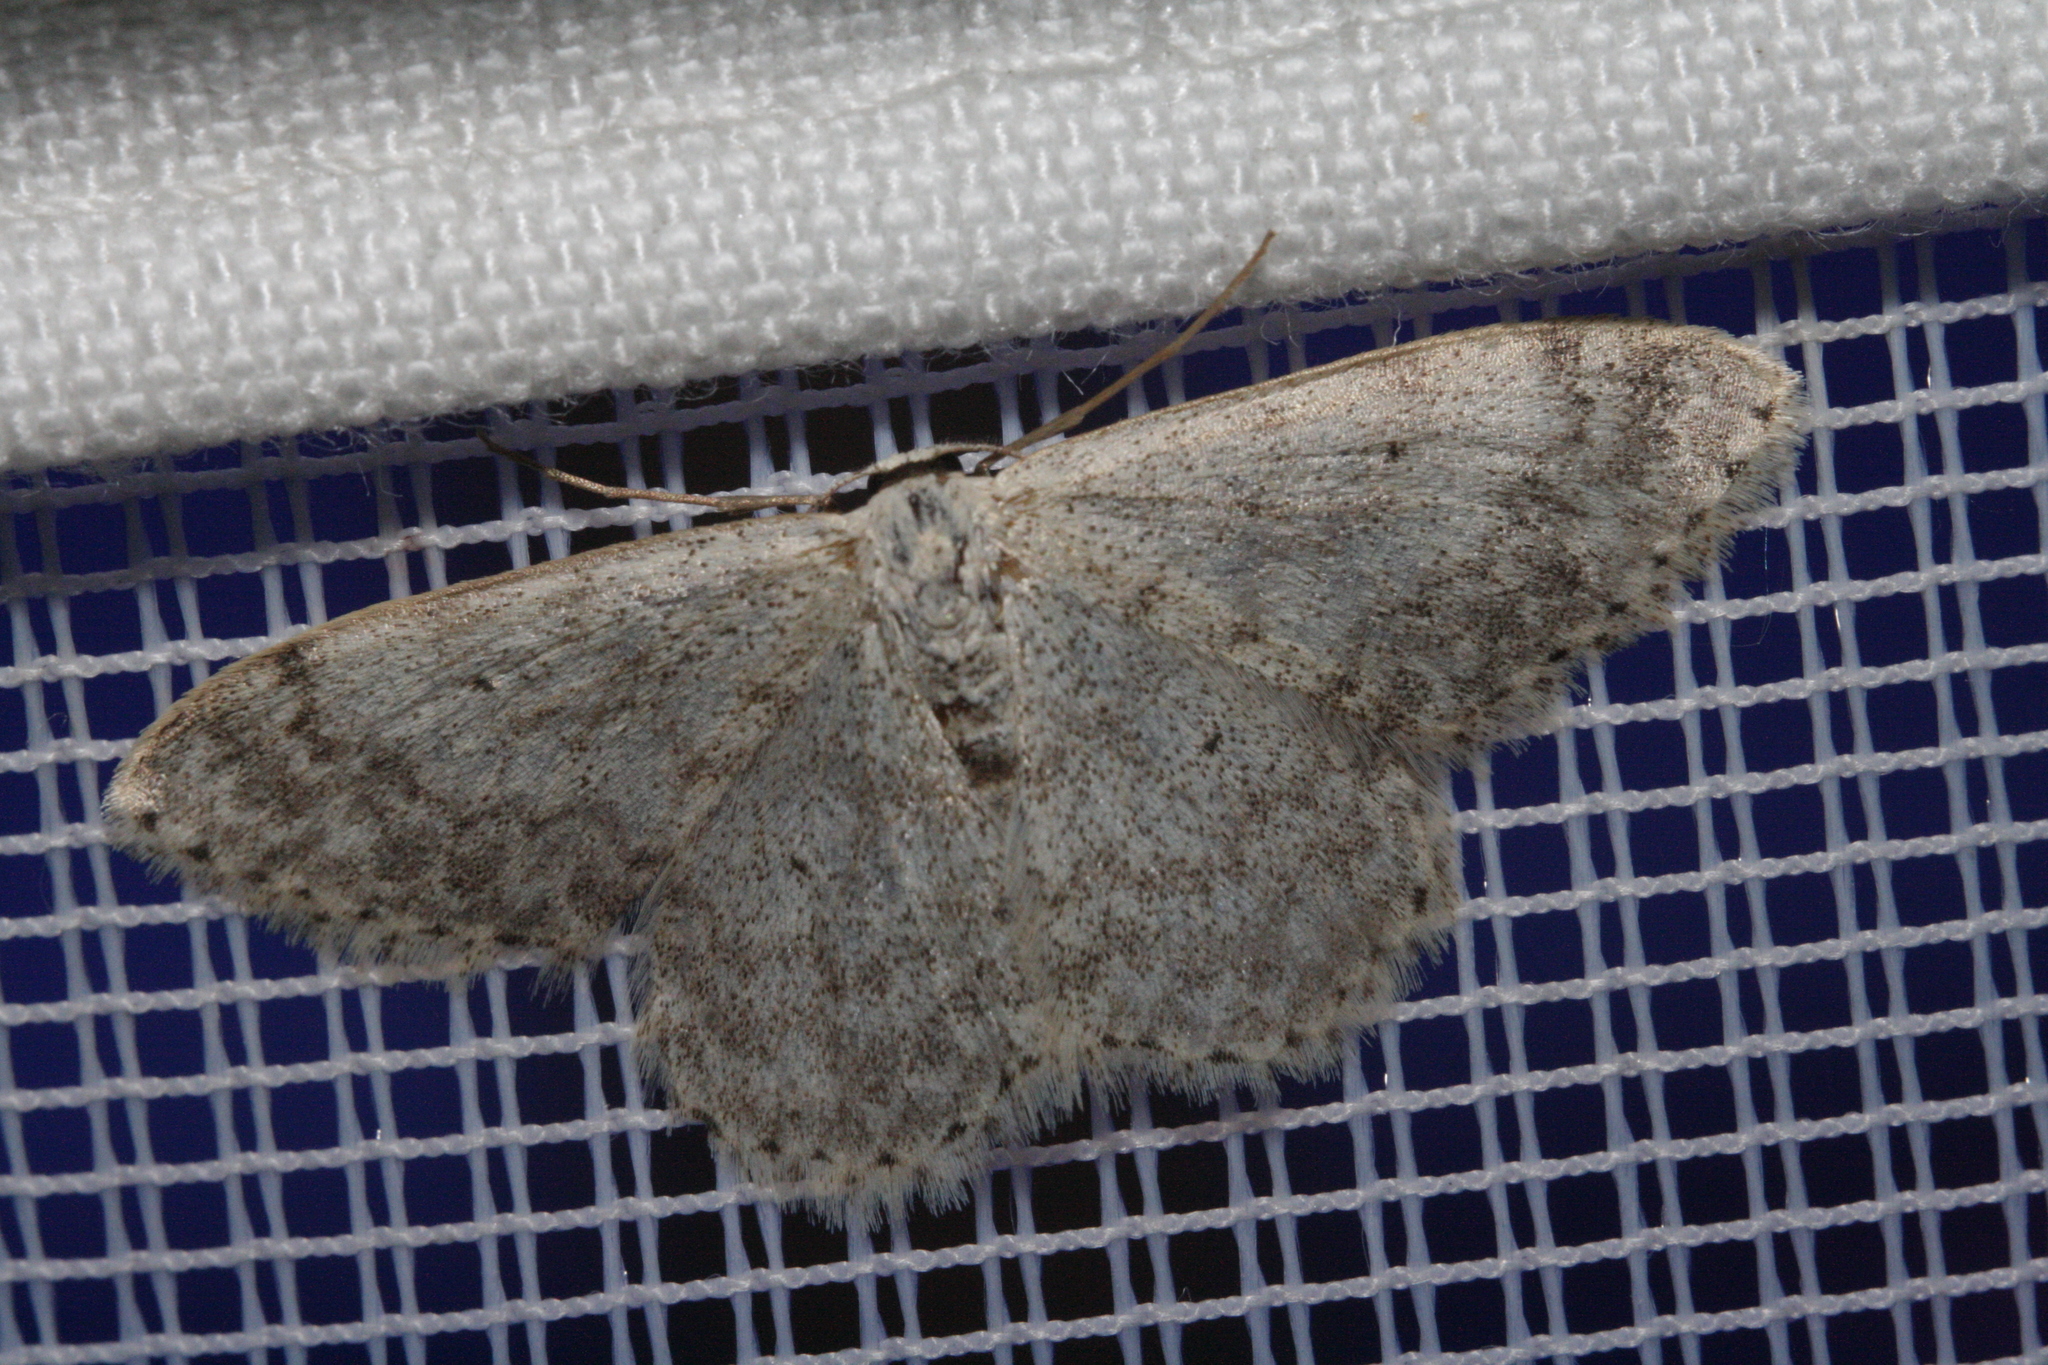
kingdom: Animalia
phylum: Arthropoda
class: Insecta
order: Lepidoptera
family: Geometridae
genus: Scopula
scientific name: Scopula marginepunctata
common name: Mullein wave
